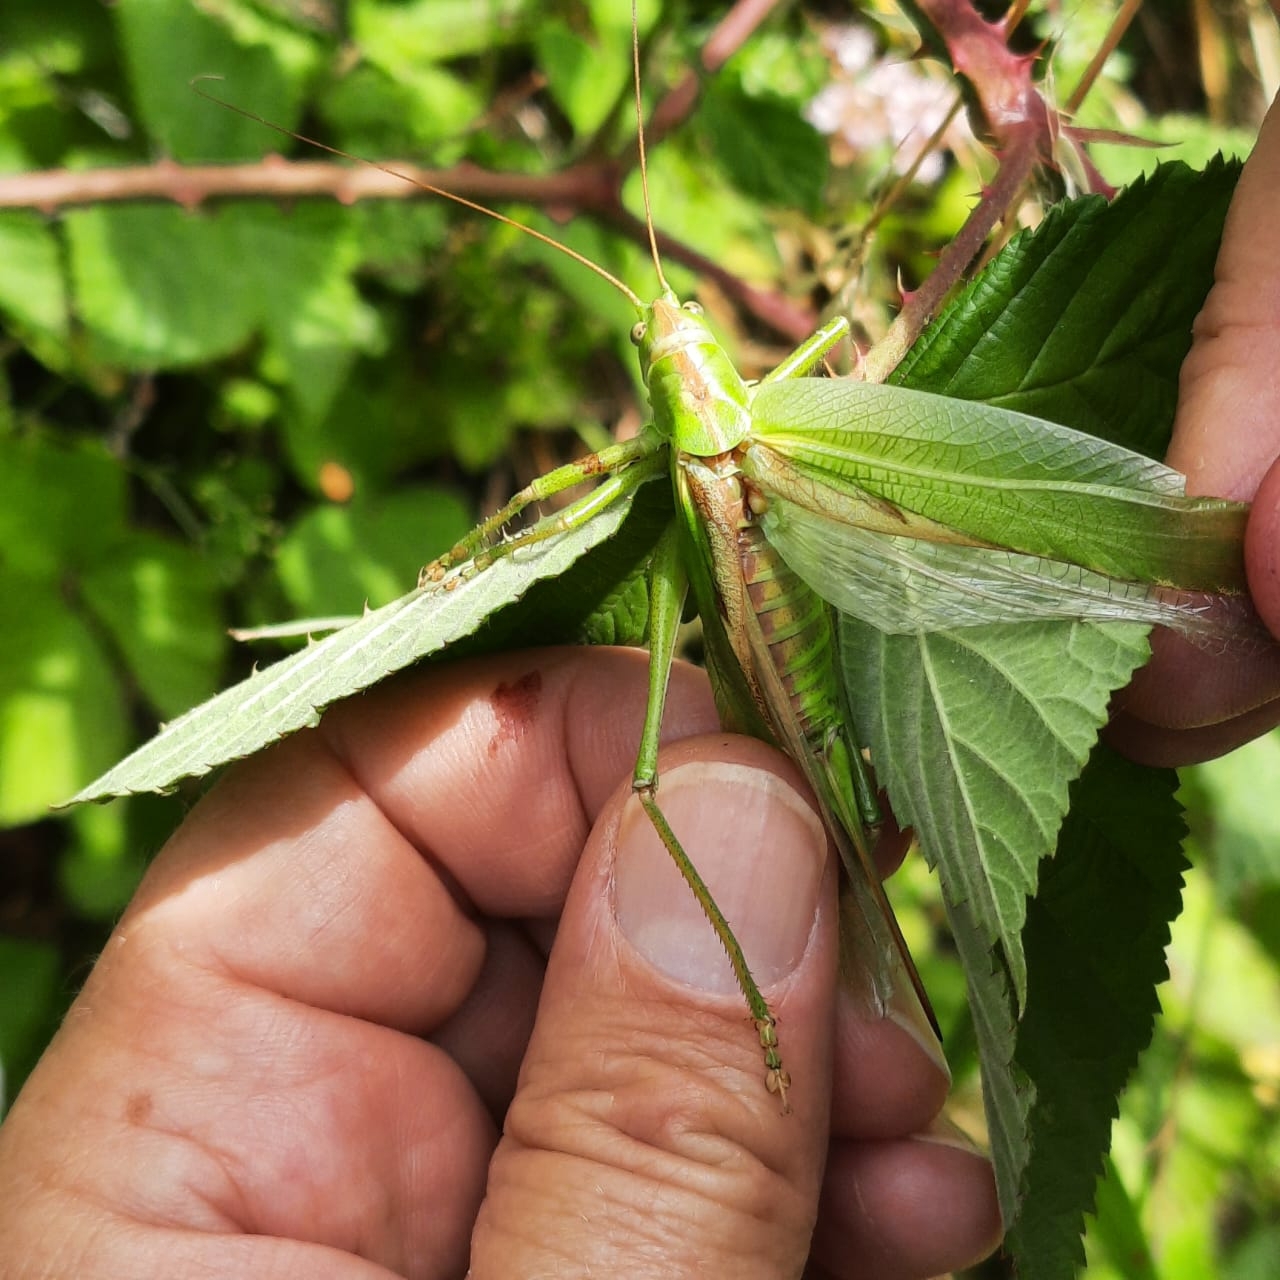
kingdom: Animalia
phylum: Arthropoda
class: Insecta
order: Orthoptera
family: Tettigoniidae
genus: Tettigonia
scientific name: Tettigonia viridissima
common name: Great green bush-cricket
